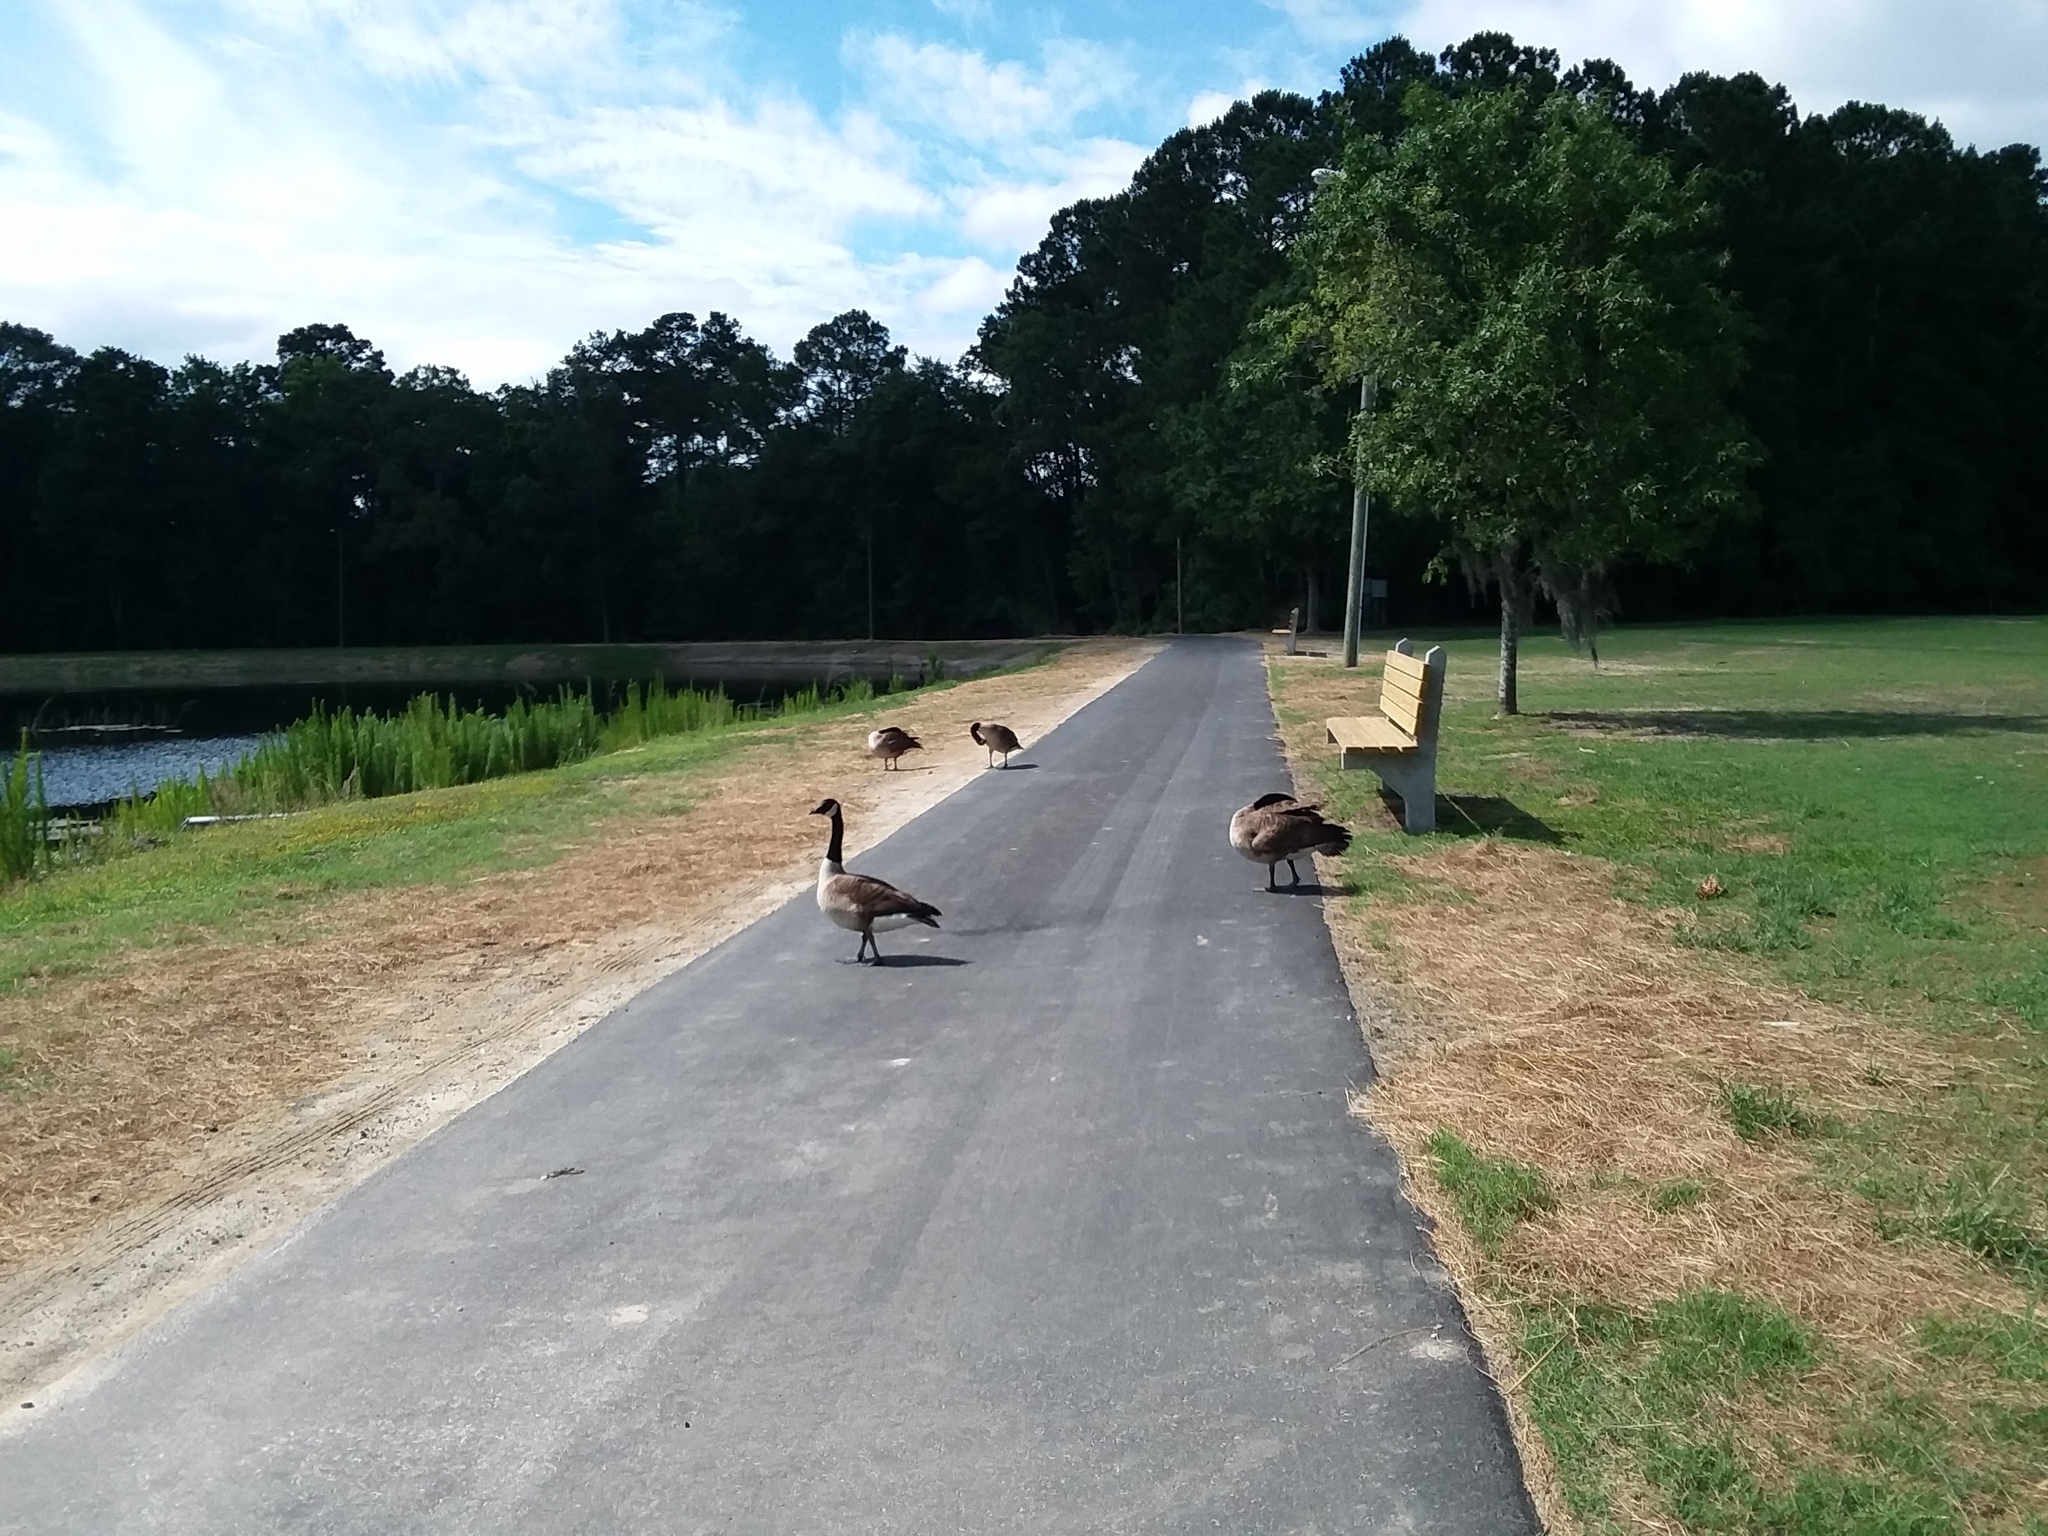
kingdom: Animalia
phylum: Chordata
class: Aves
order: Anseriformes
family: Anatidae
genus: Branta
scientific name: Branta canadensis
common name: Canada goose
